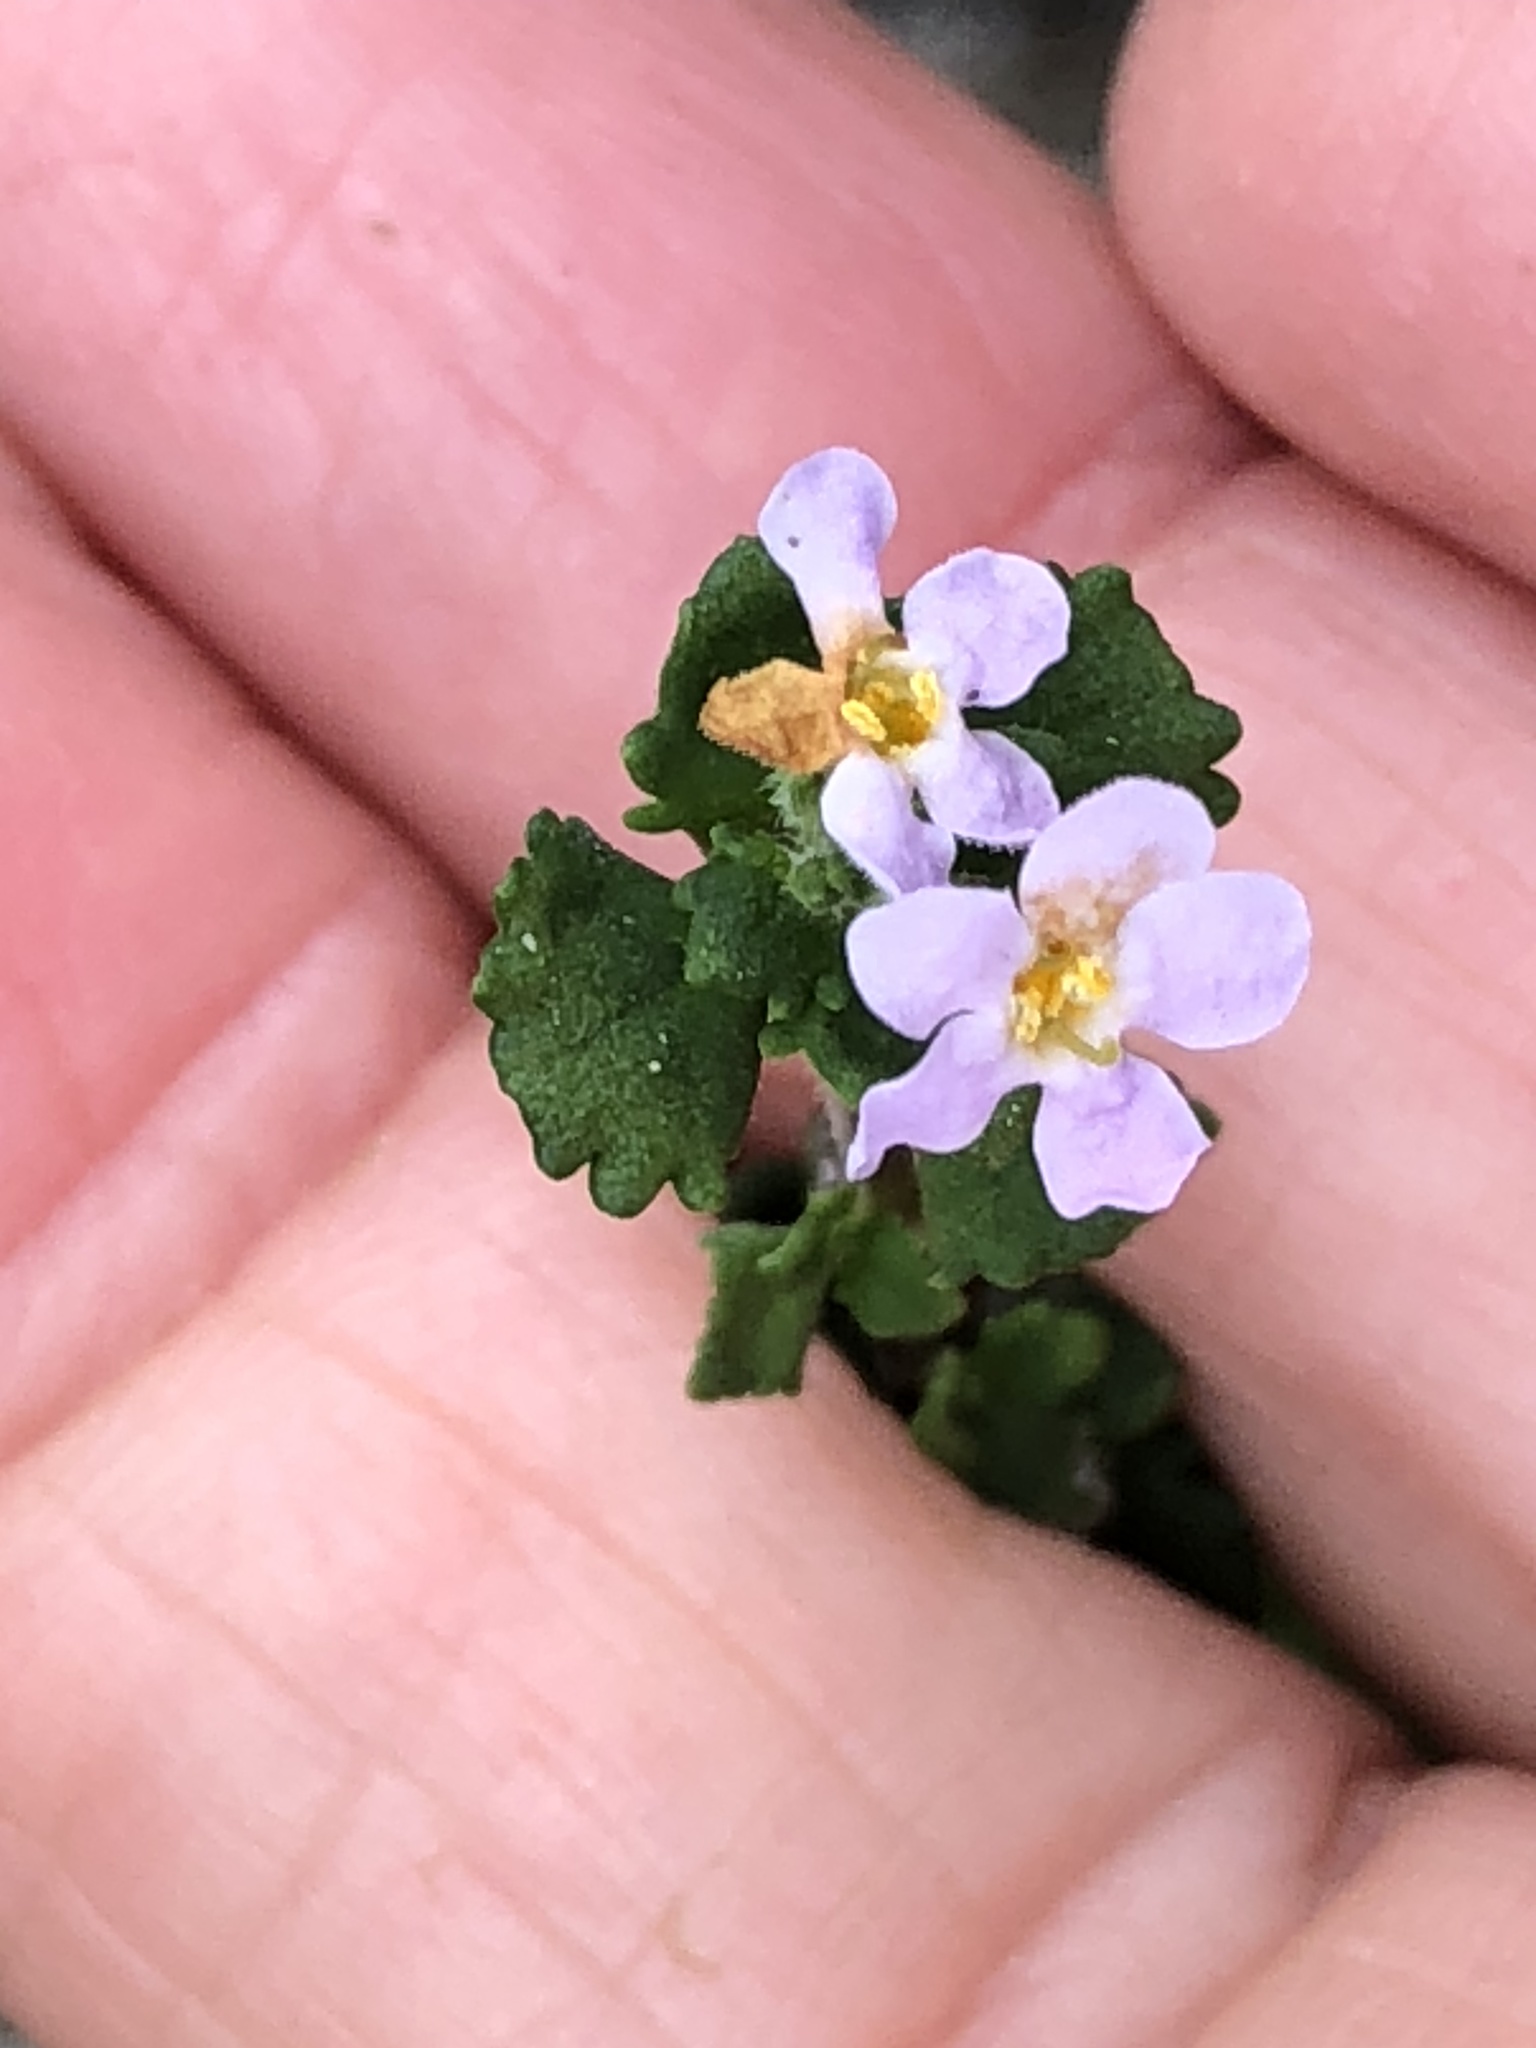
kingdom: Plantae
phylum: Tracheophyta
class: Magnoliopsida
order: Lamiales
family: Scrophulariaceae
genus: Chaenostoma
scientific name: Chaenostoma hispidum
